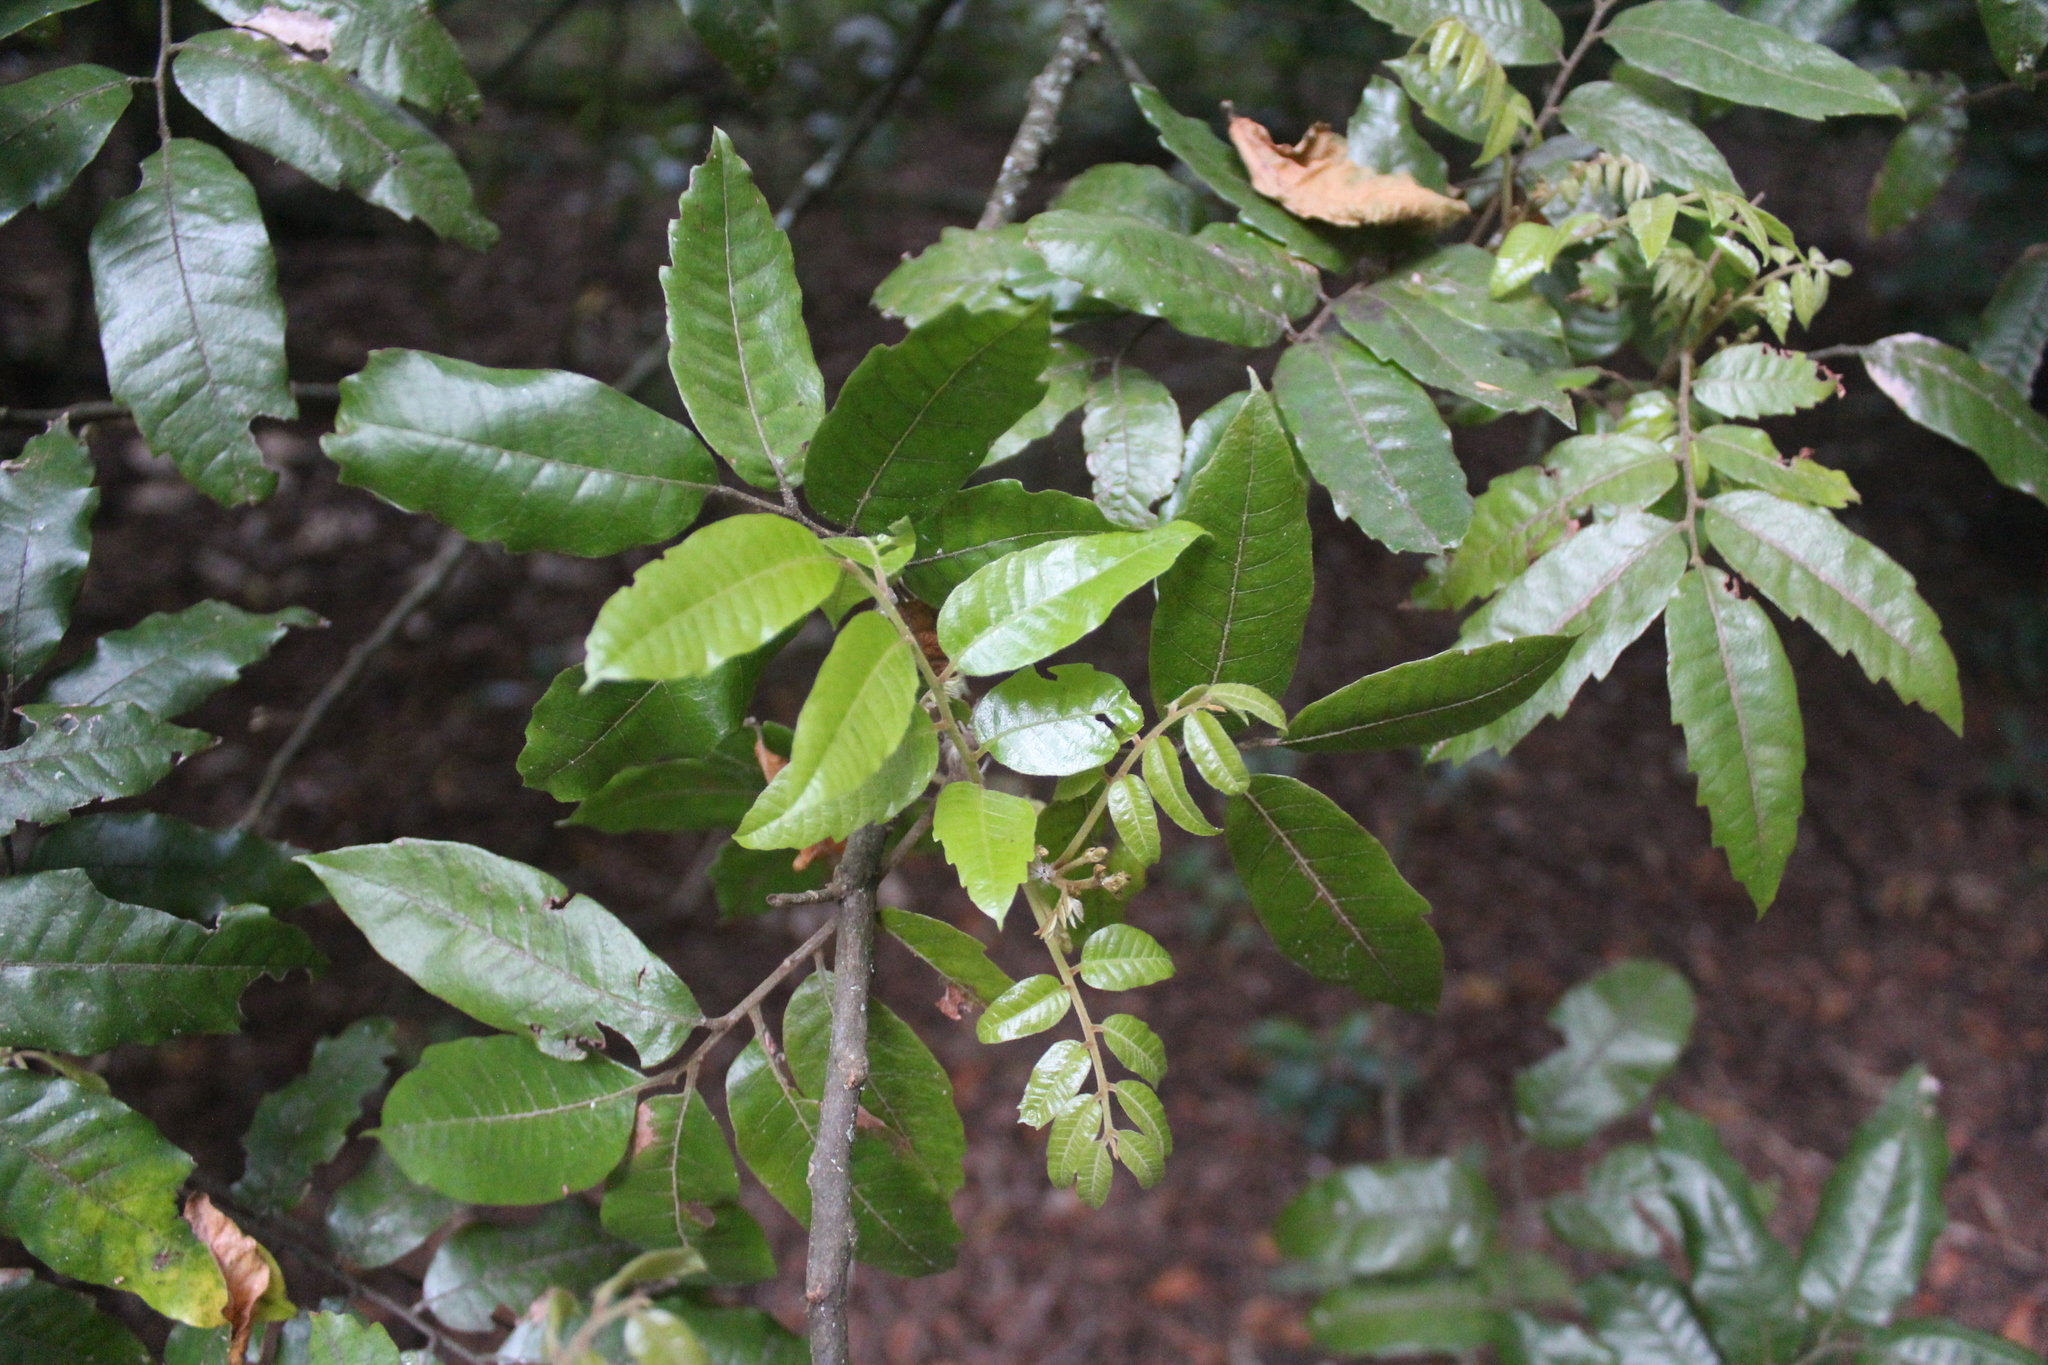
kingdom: Plantae
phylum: Tracheophyta
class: Magnoliopsida
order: Sapindales
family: Sapindaceae
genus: Alectryon
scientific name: Alectryon excelsus
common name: Three kings titoki
